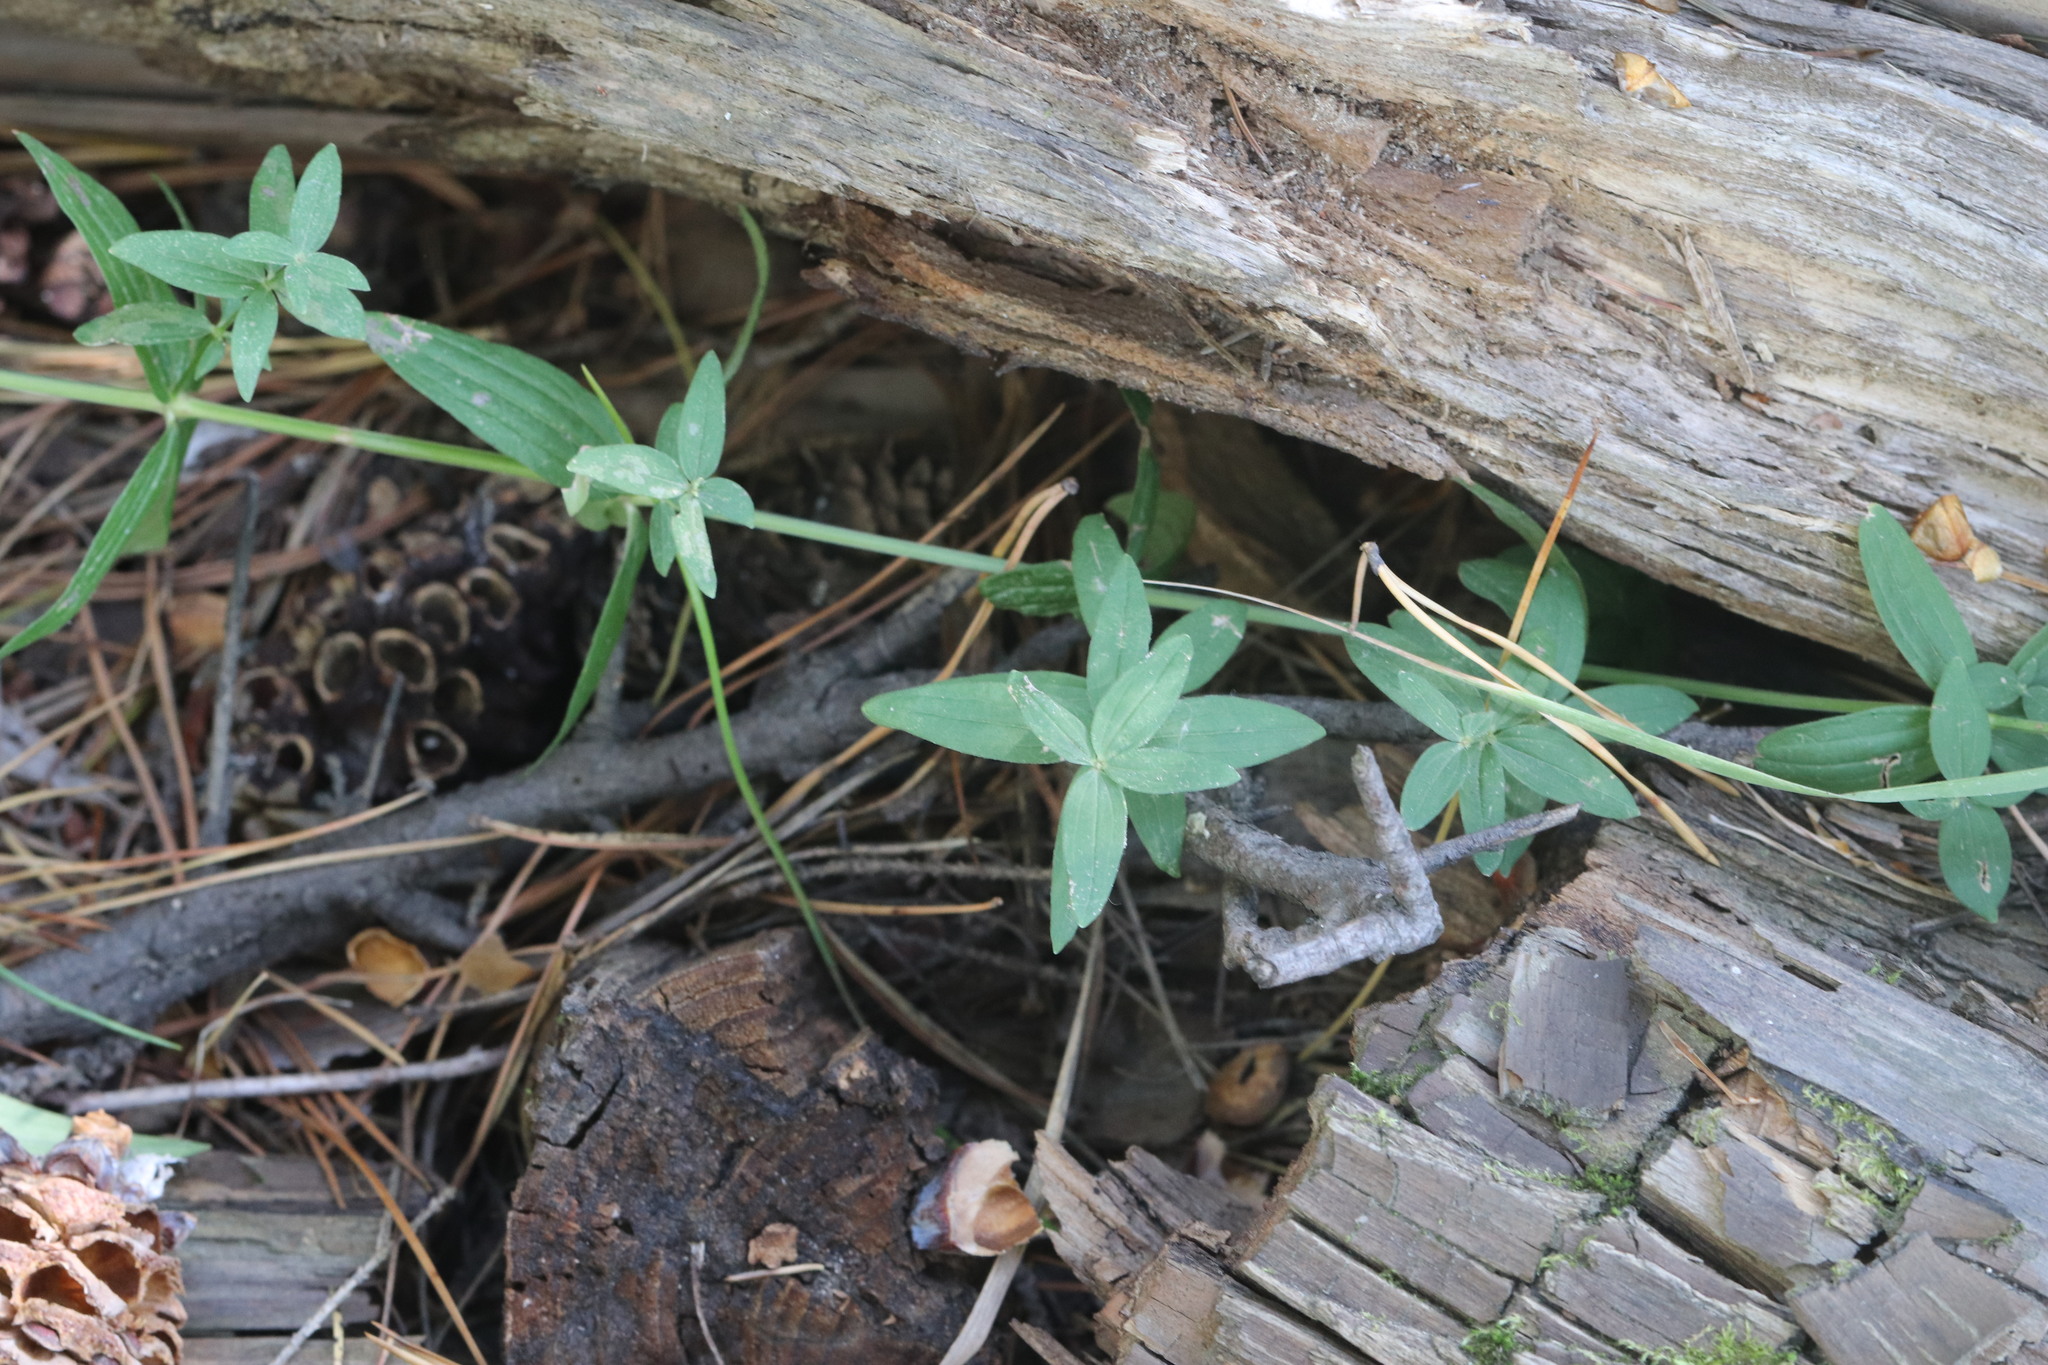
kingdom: Plantae
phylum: Tracheophyta
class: Magnoliopsida
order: Gentianales
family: Rubiaceae
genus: Galium
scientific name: Galium boreale
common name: Northern bedstraw
